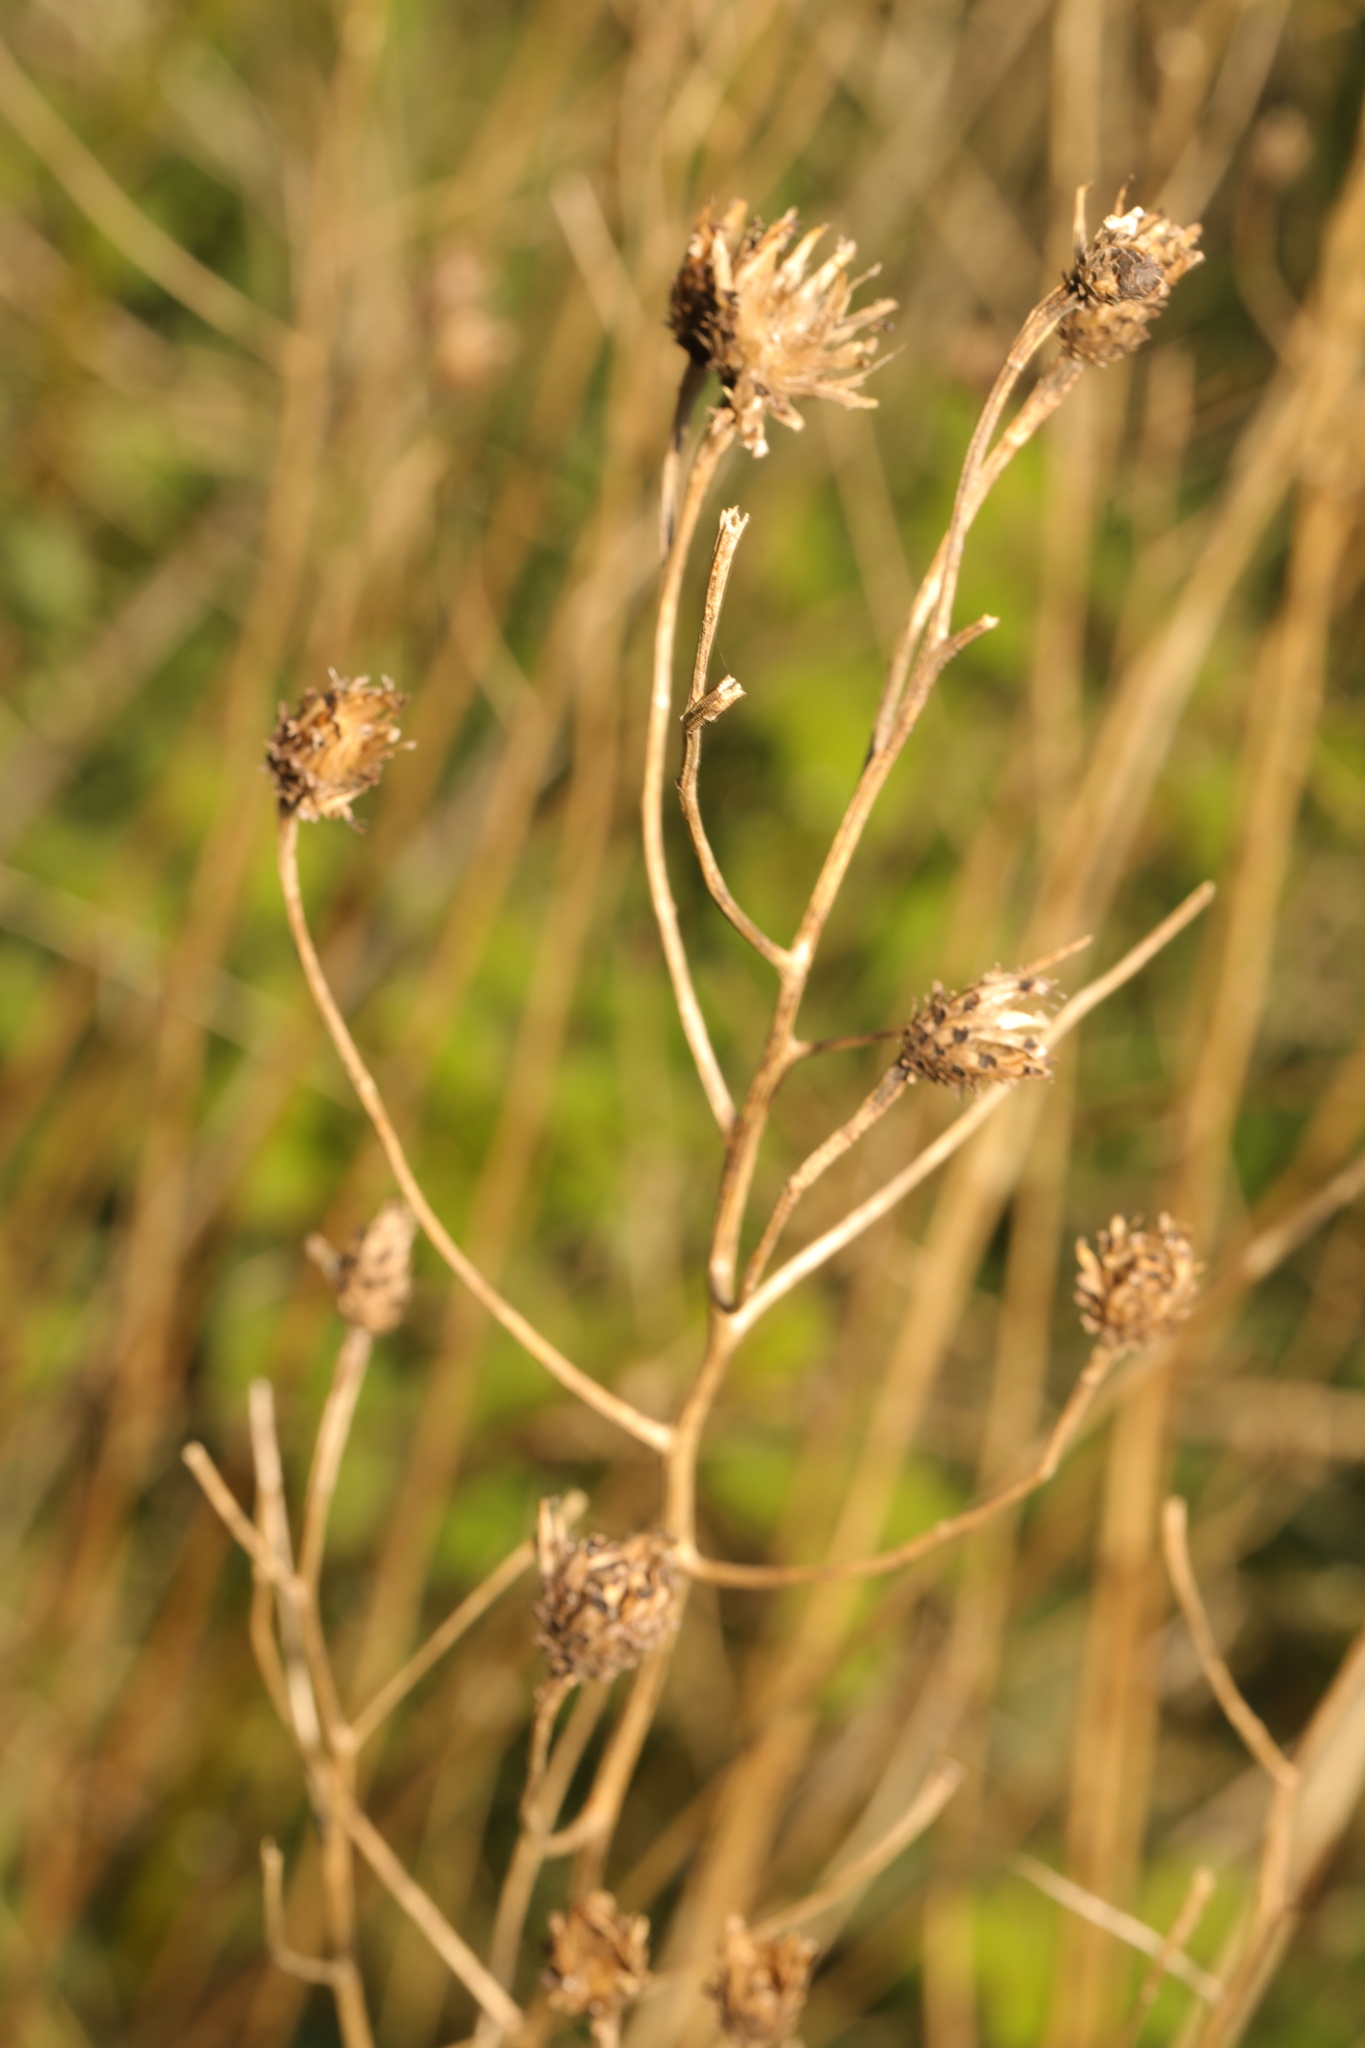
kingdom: Plantae
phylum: Tracheophyta
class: Magnoliopsida
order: Asterales
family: Asteraceae
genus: Centaurea
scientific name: Centaurea nigra
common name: Lesser knapweed
